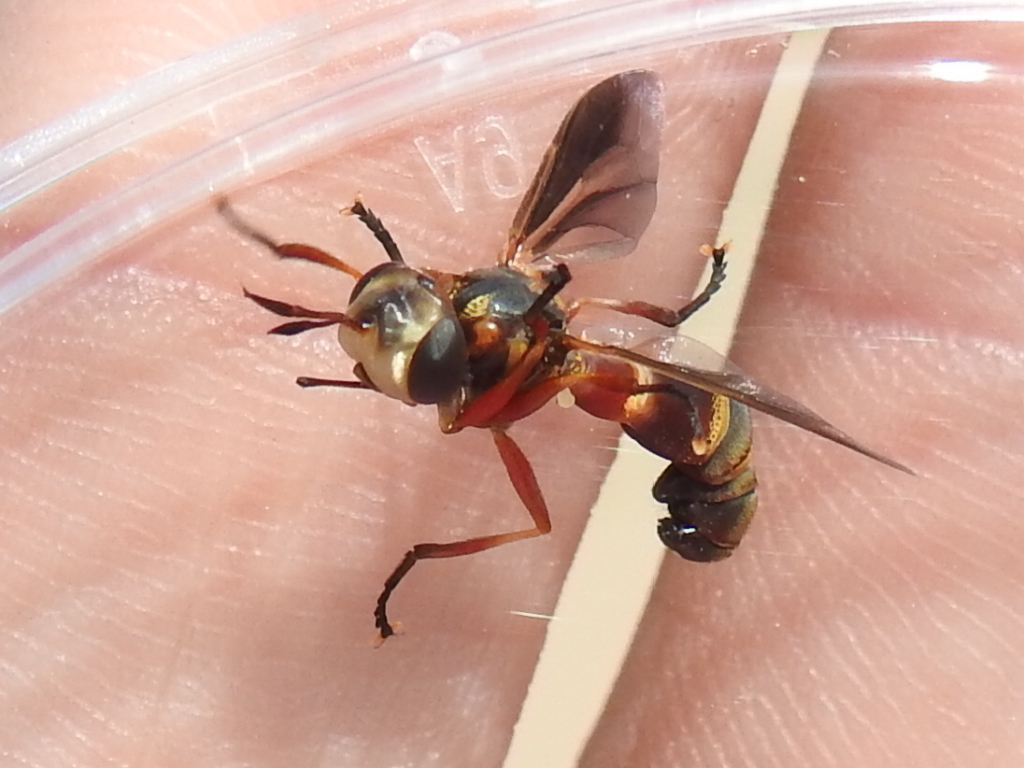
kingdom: Animalia
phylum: Arthropoda
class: Insecta
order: Diptera
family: Conopidae
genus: Physoconops
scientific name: Physoconops gracilis
